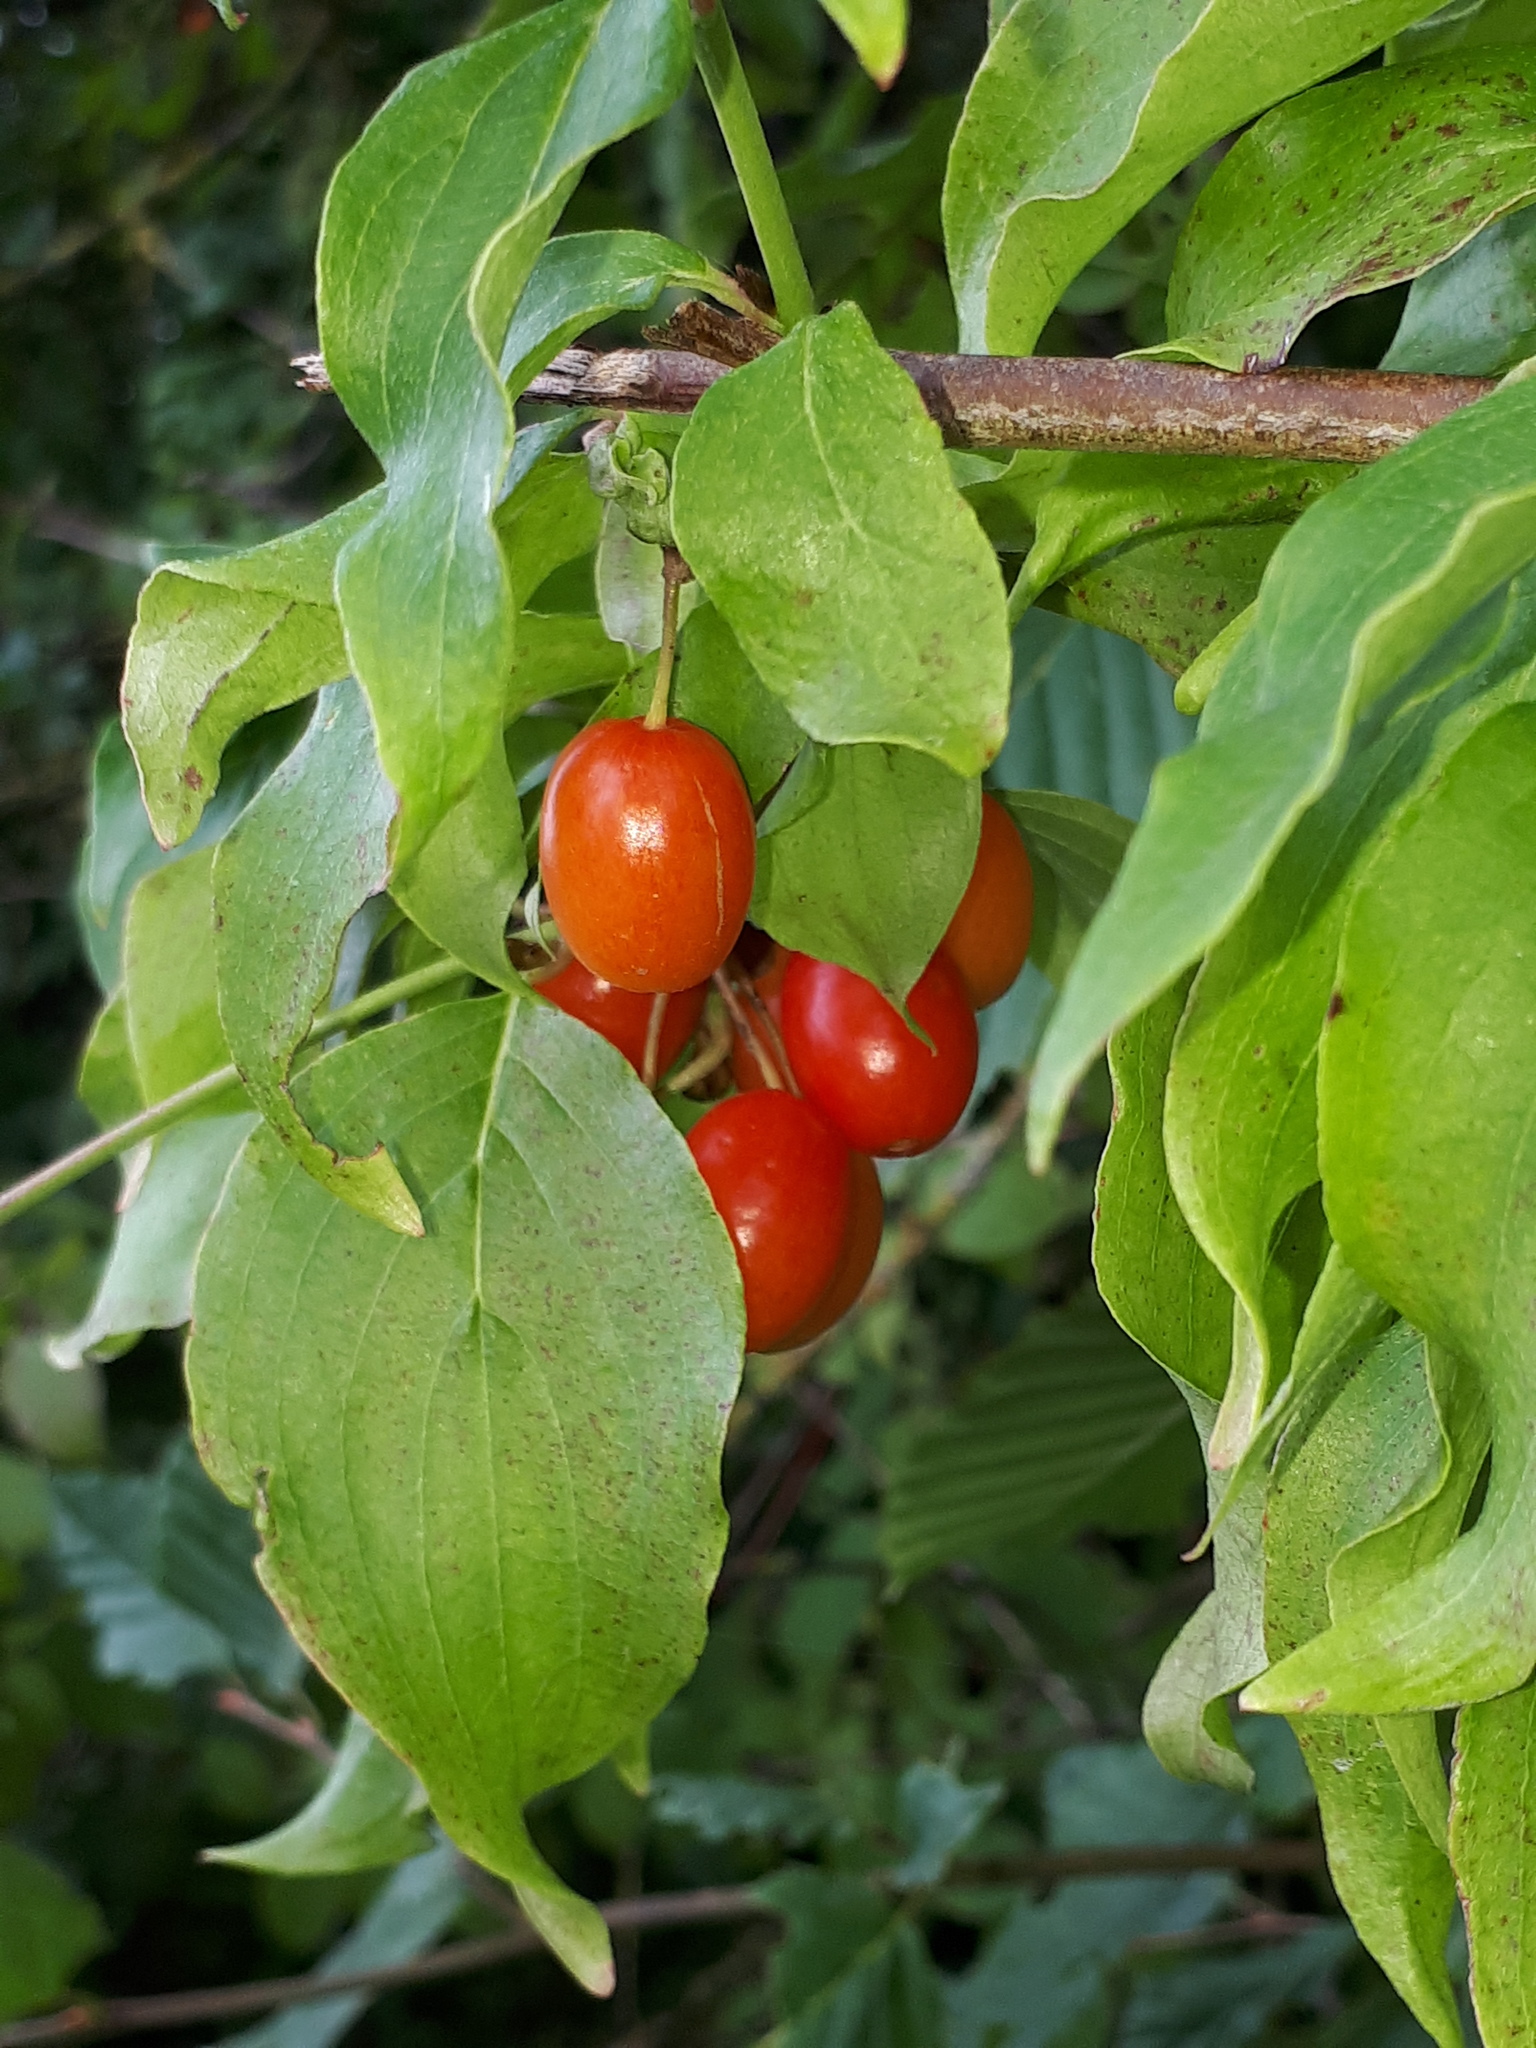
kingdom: Plantae
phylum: Tracheophyta
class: Magnoliopsida
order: Cornales
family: Cornaceae
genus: Cornus
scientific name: Cornus mas
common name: Cornelian-cherry
